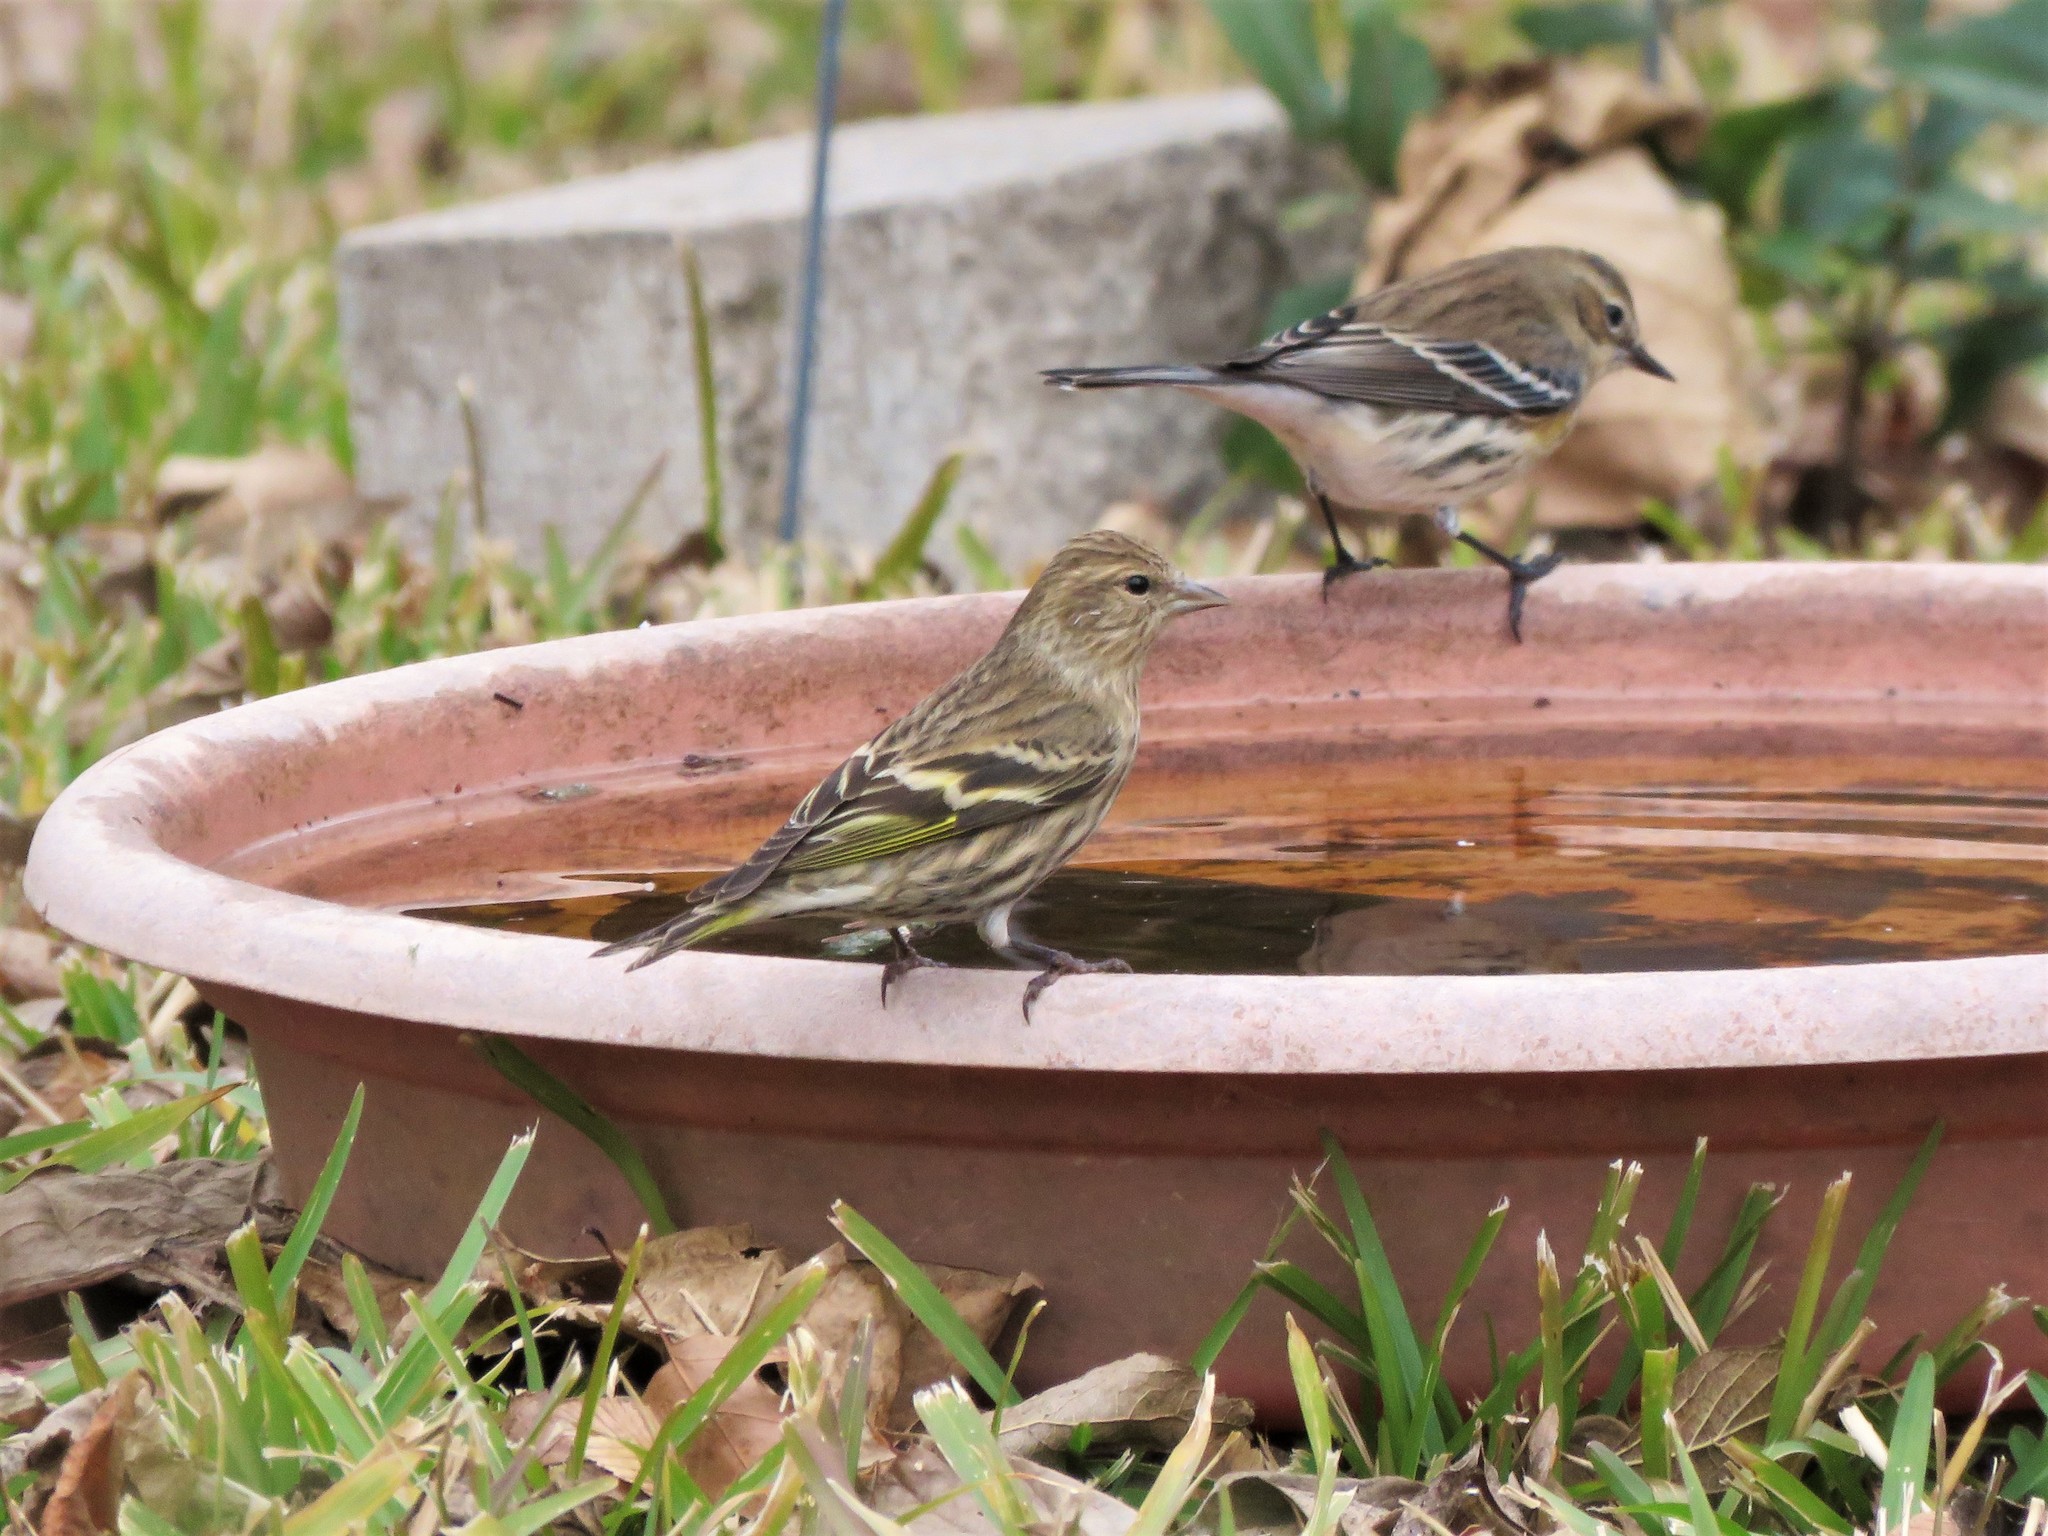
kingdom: Animalia
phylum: Chordata
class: Aves
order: Passeriformes
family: Fringillidae
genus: Spinus
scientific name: Spinus pinus
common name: Pine siskin
